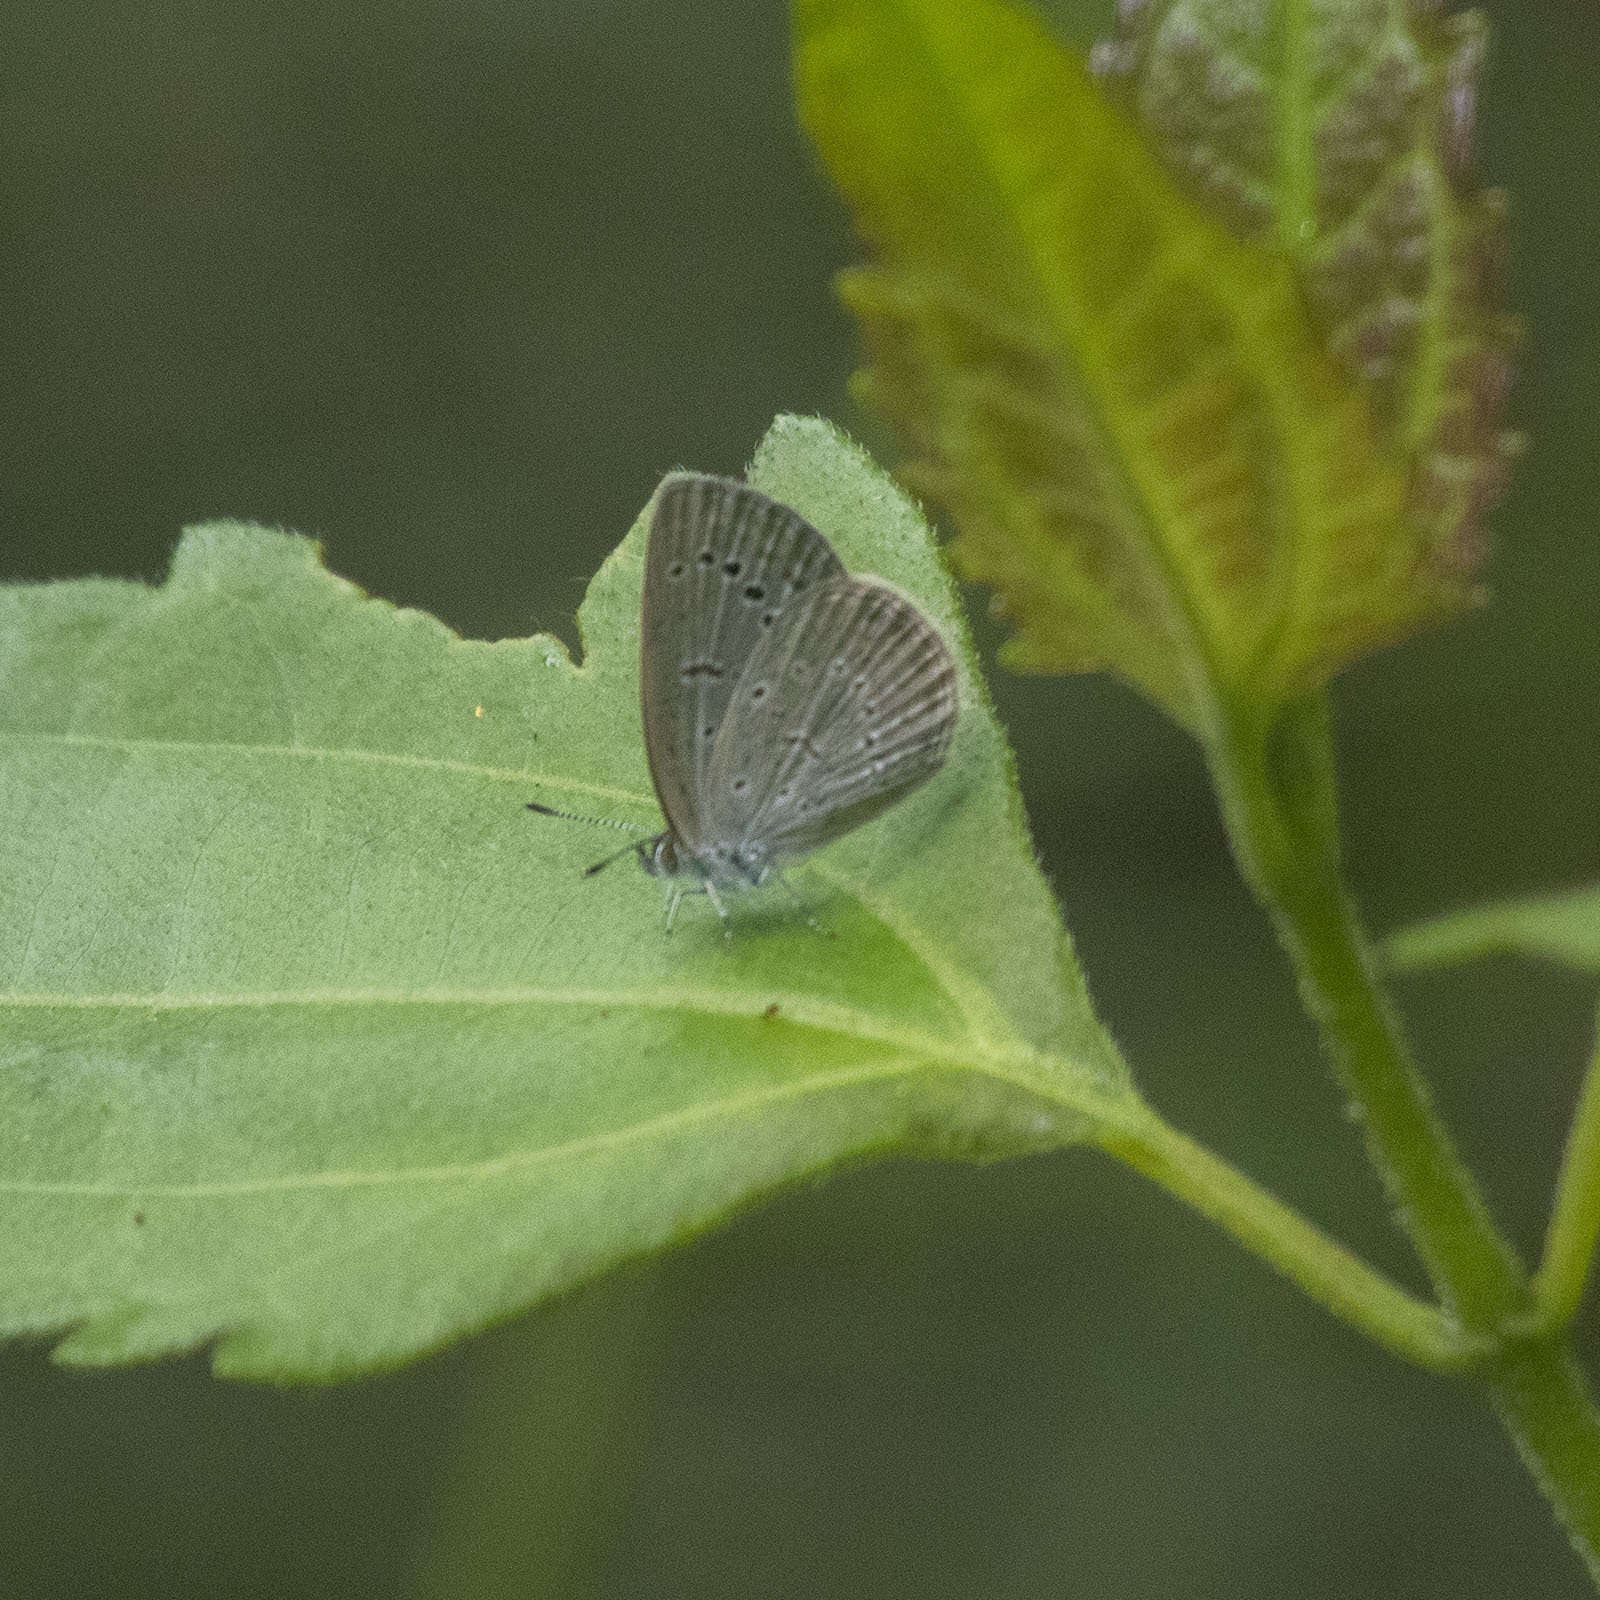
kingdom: Animalia
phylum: Arthropoda
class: Insecta
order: Lepidoptera
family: Lycaenidae
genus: Pseudozizeeria
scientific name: Pseudozizeeria maha
